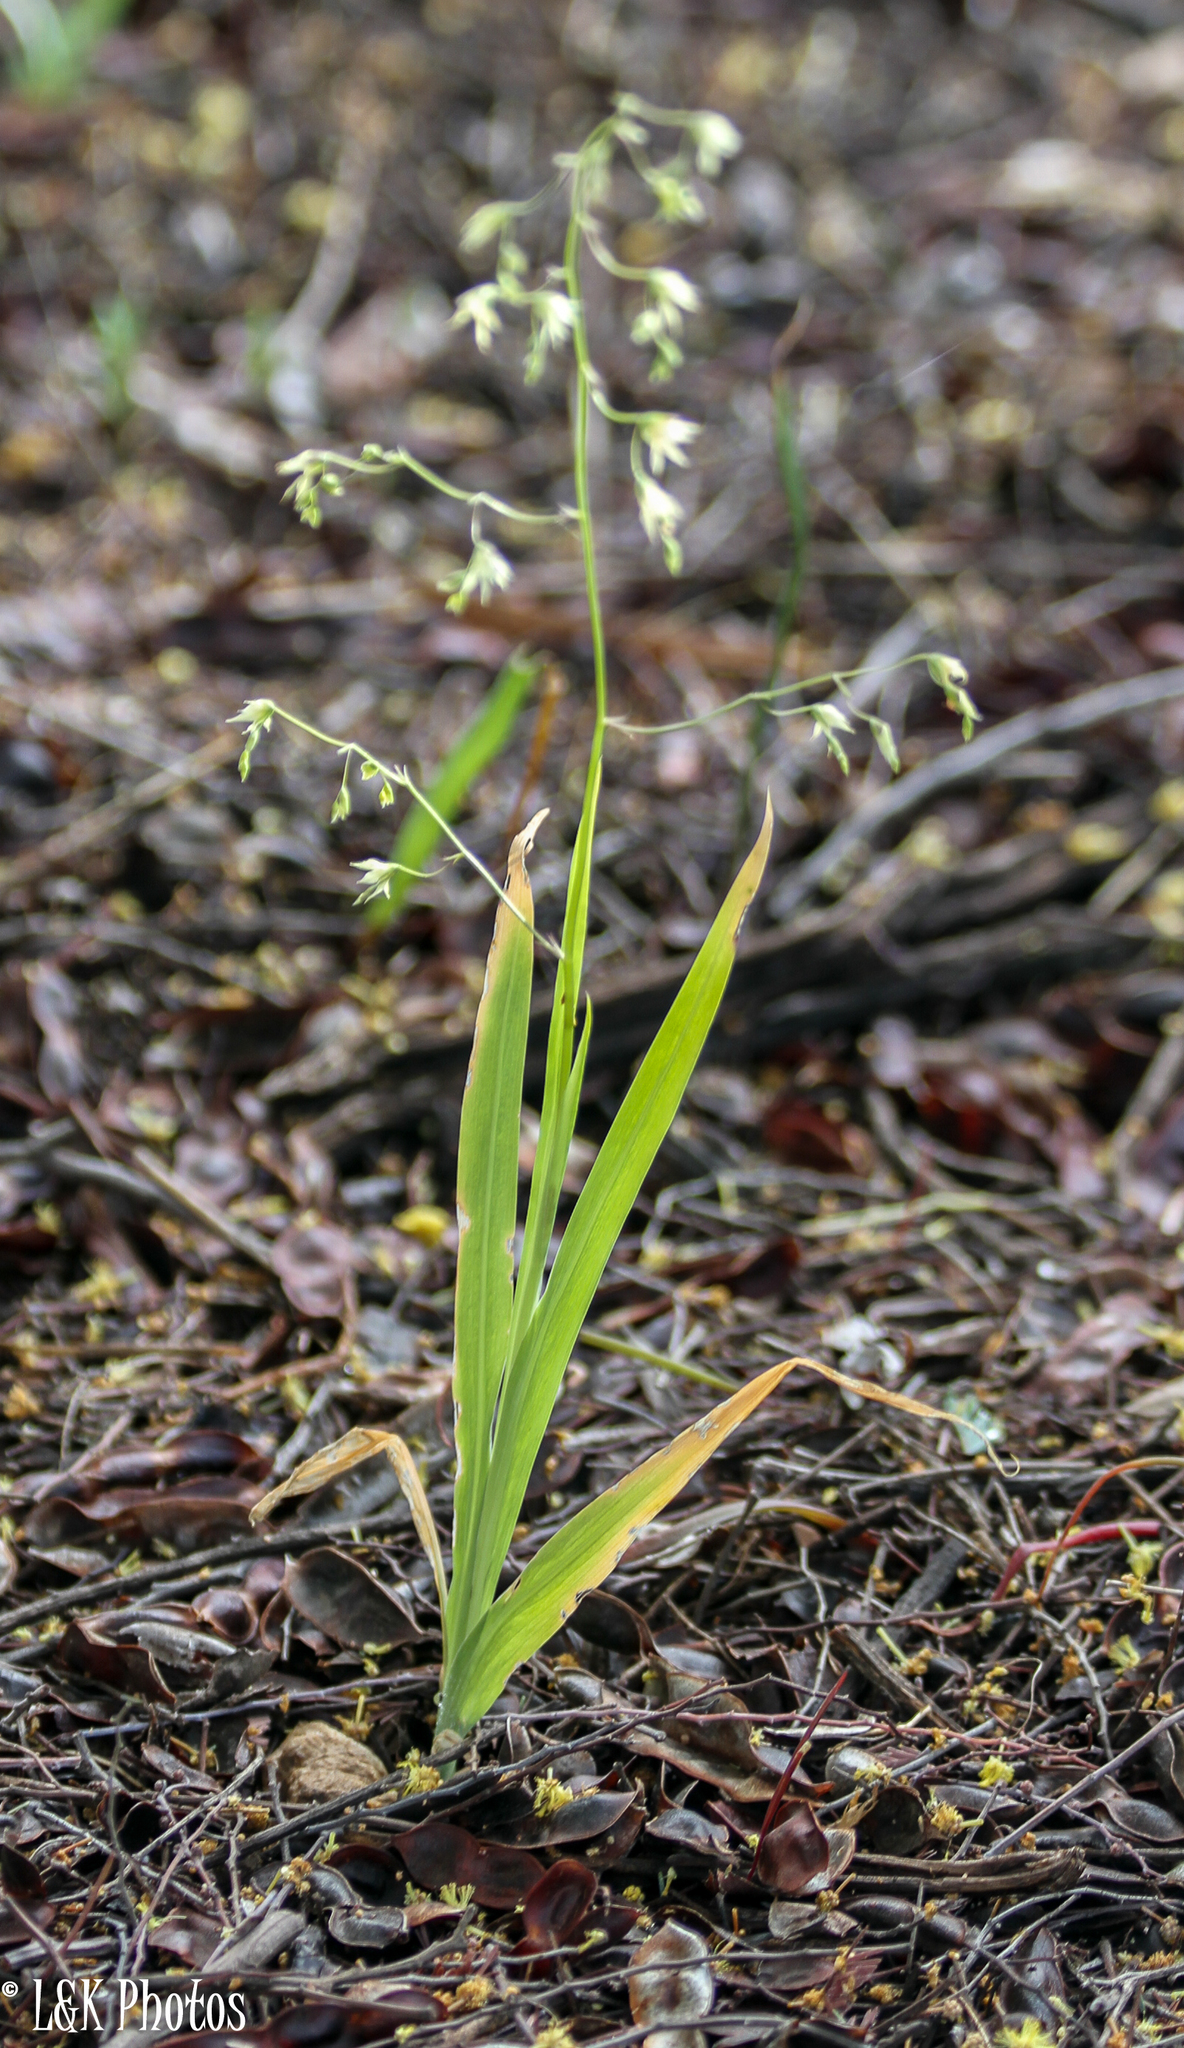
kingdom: Plantae
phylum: Tracheophyta
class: Liliopsida
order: Asparagales
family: Iridaceae
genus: Melasphaerula
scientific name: Melasphaerula graminea
